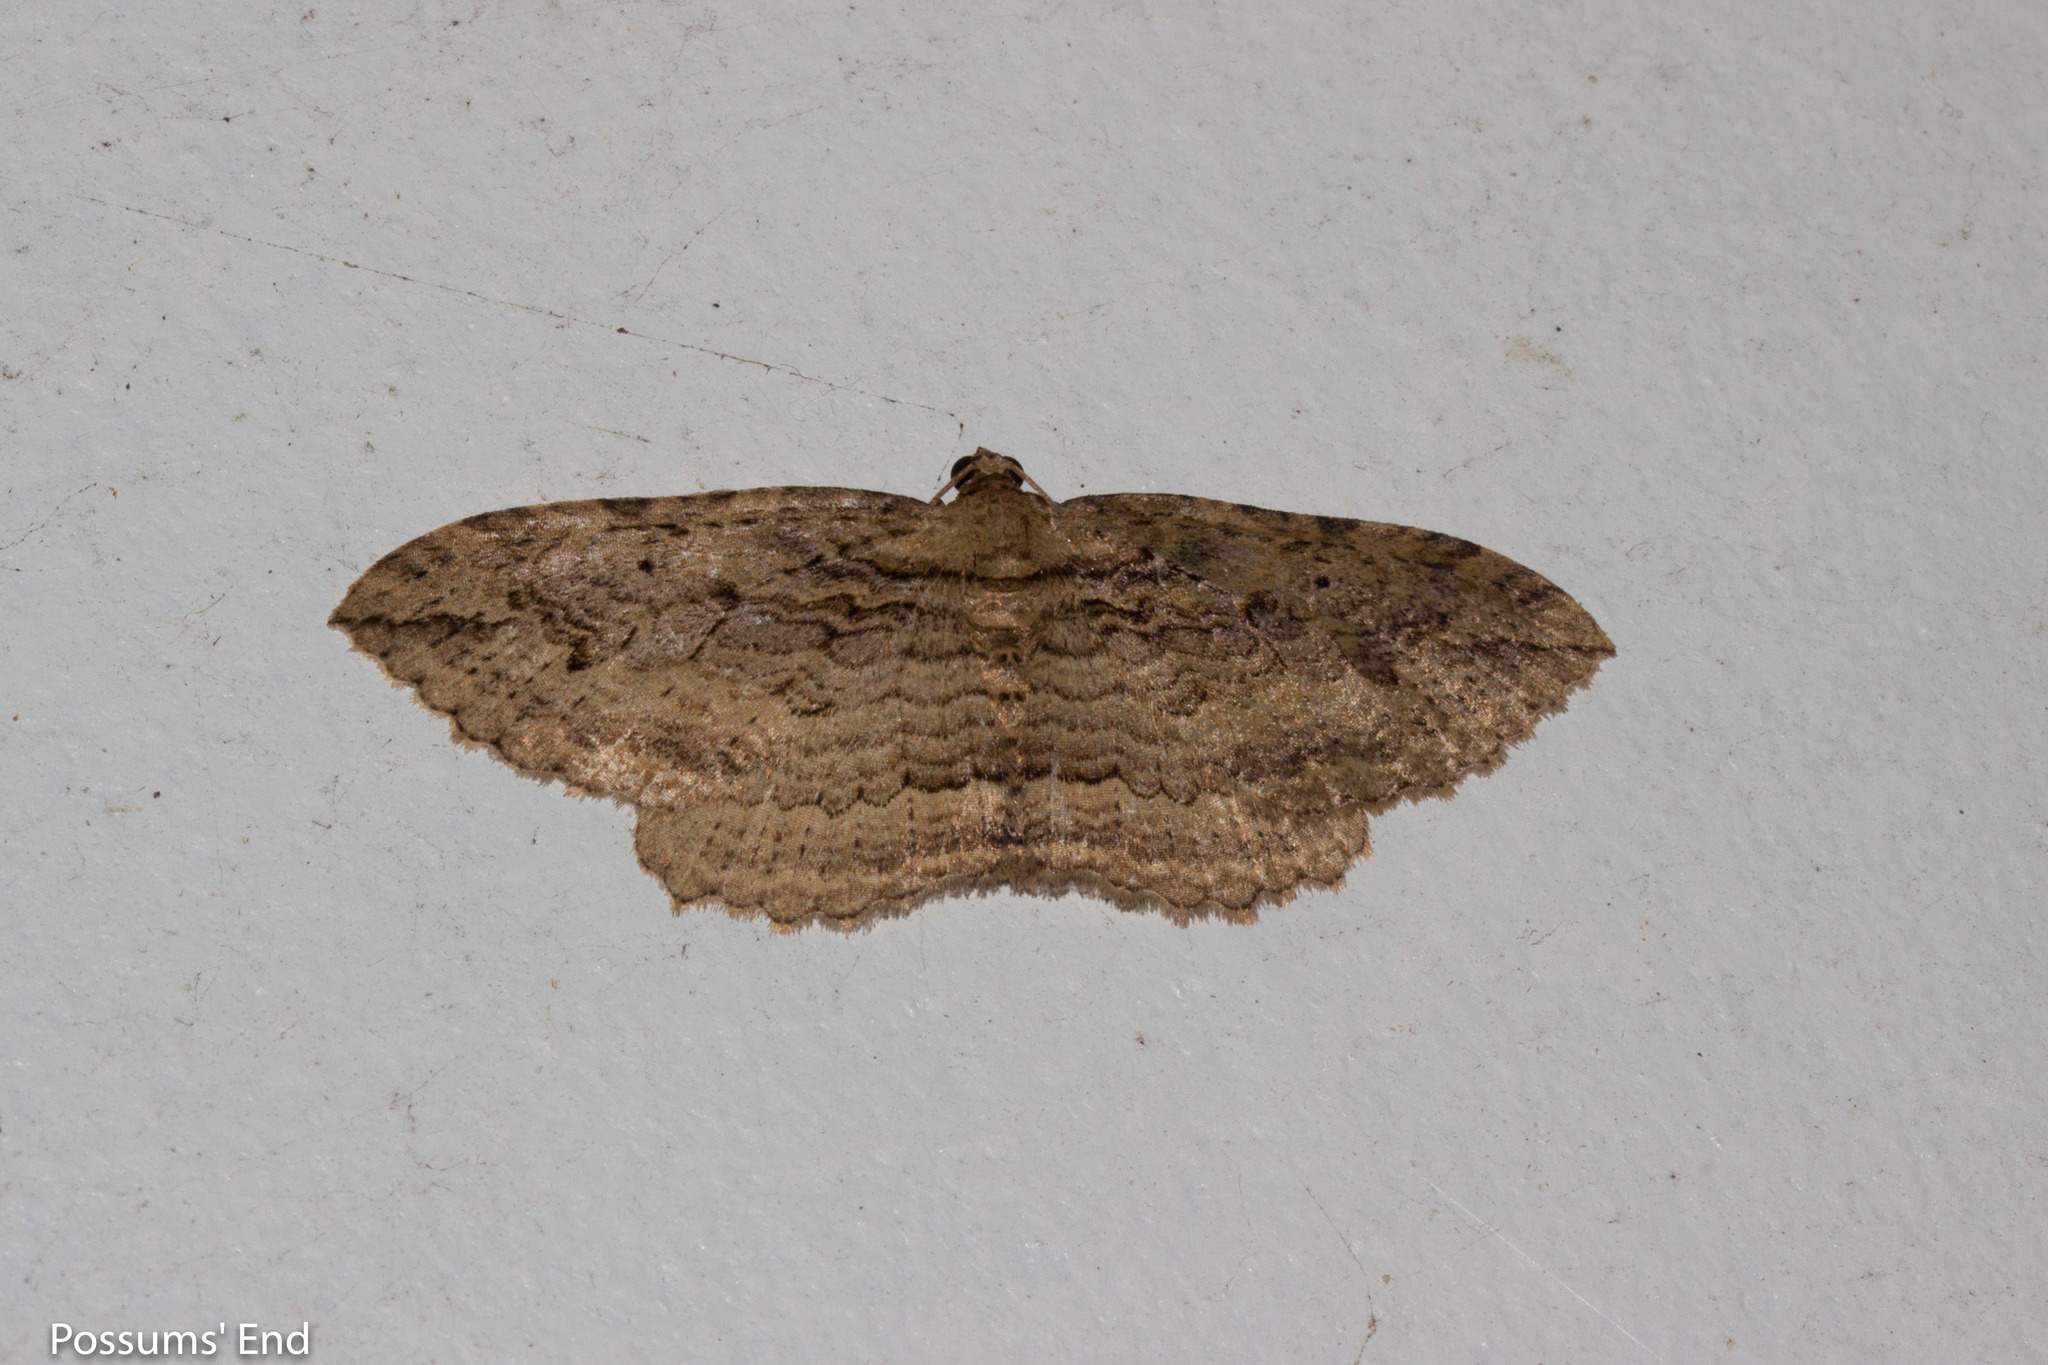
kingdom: Animalia
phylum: Arthropoda
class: Insecta
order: Lepidoptera
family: Geometridae
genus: Austrocidaria
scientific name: Austrocidaria gobiata
